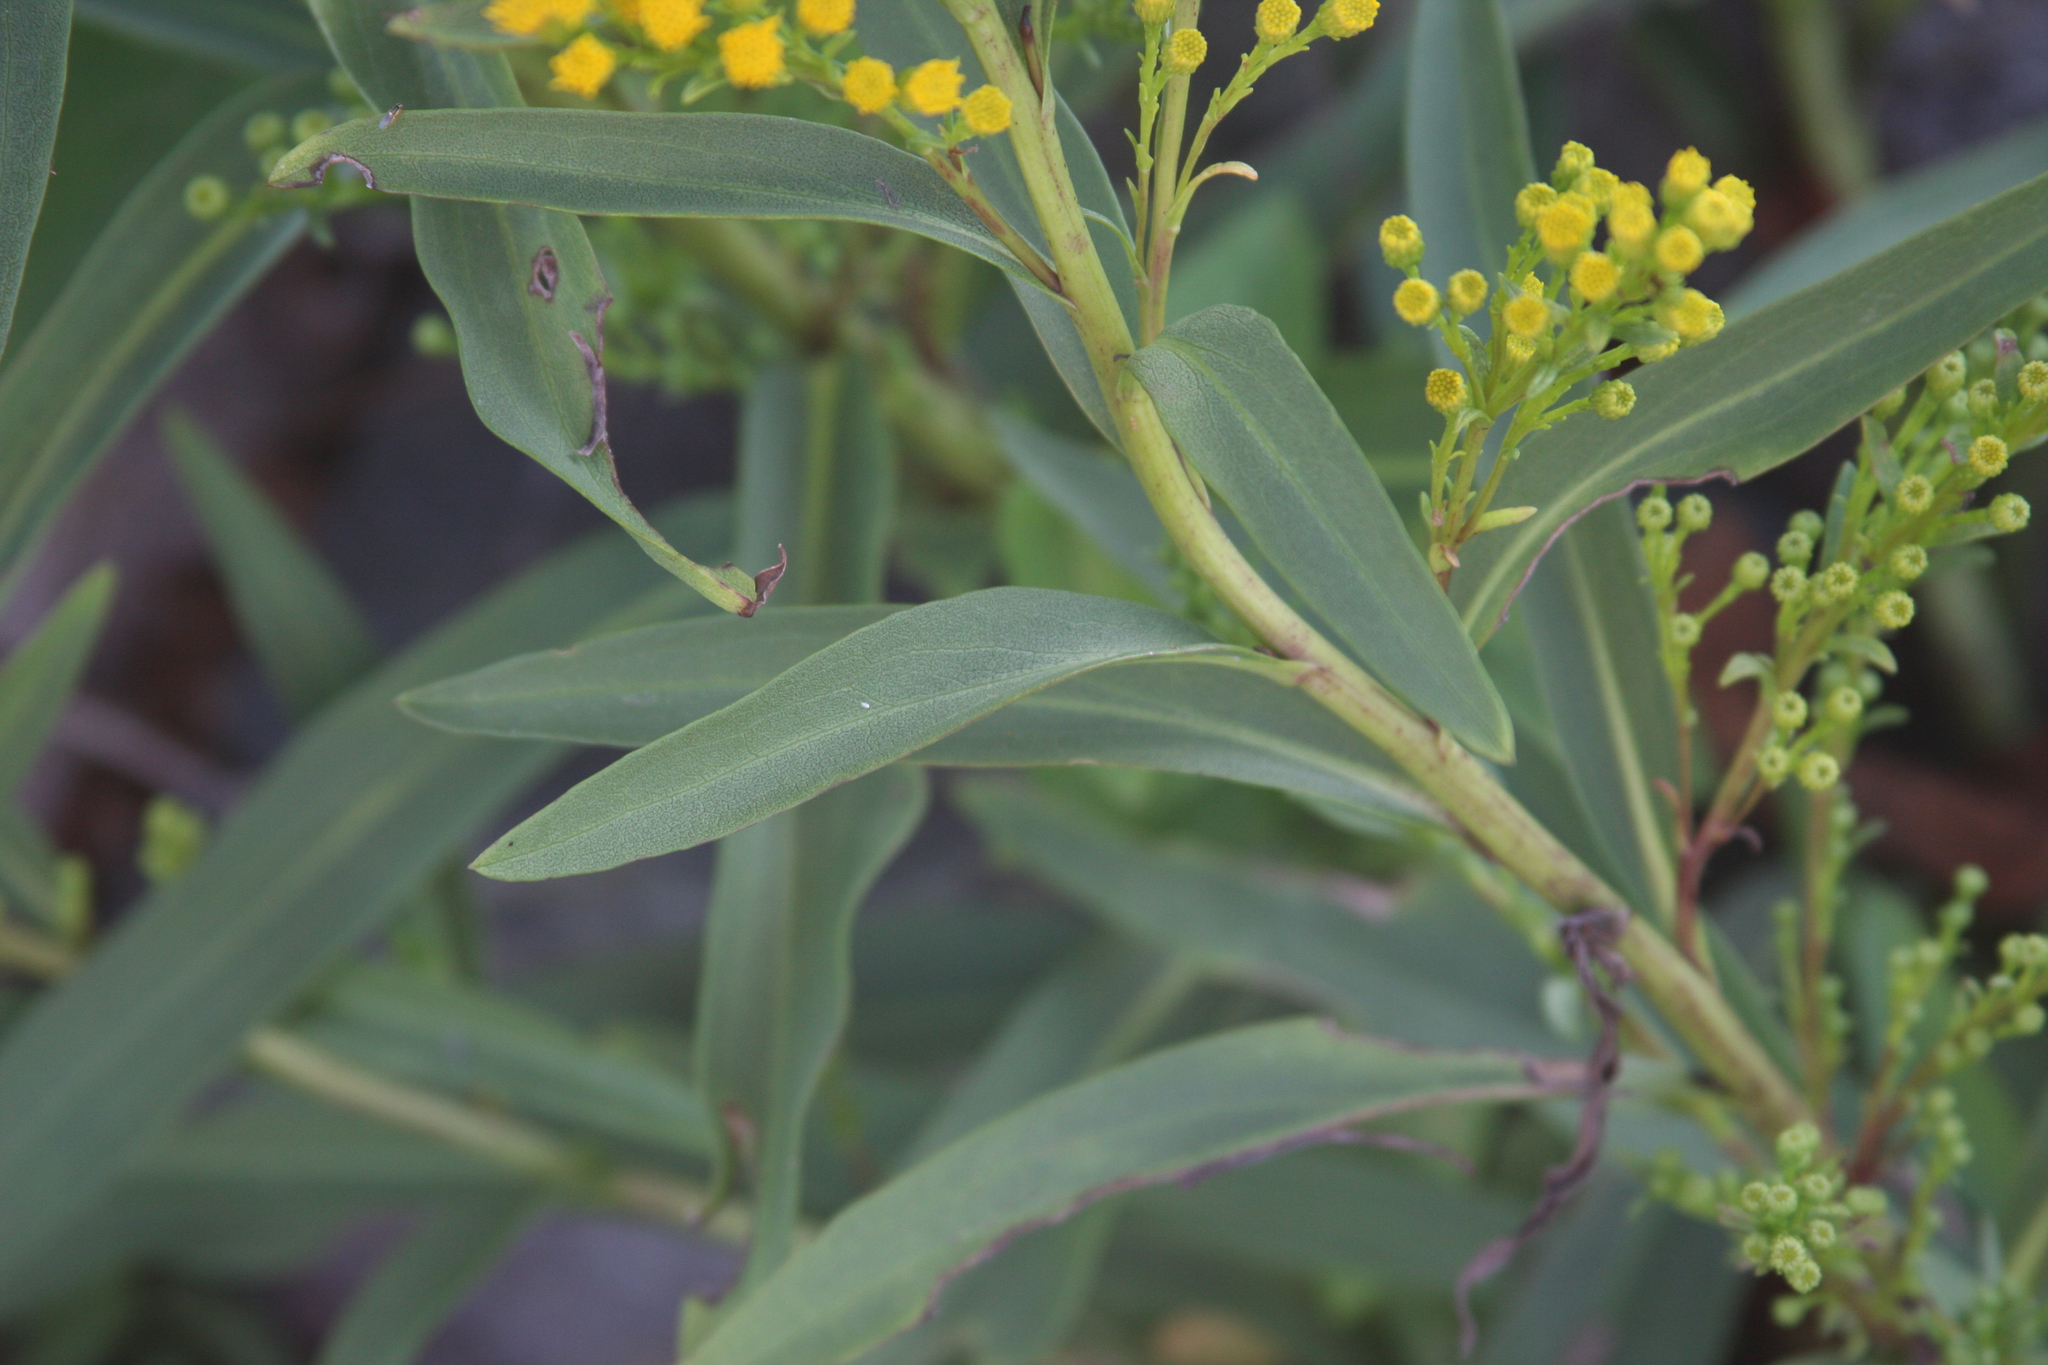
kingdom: Plantae
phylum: Tracheophyta
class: Magnoliopsida
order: Asterales
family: Asteraceae
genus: Solidago
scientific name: Solidago sempervirens
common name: Salt-marsh goldenrod
